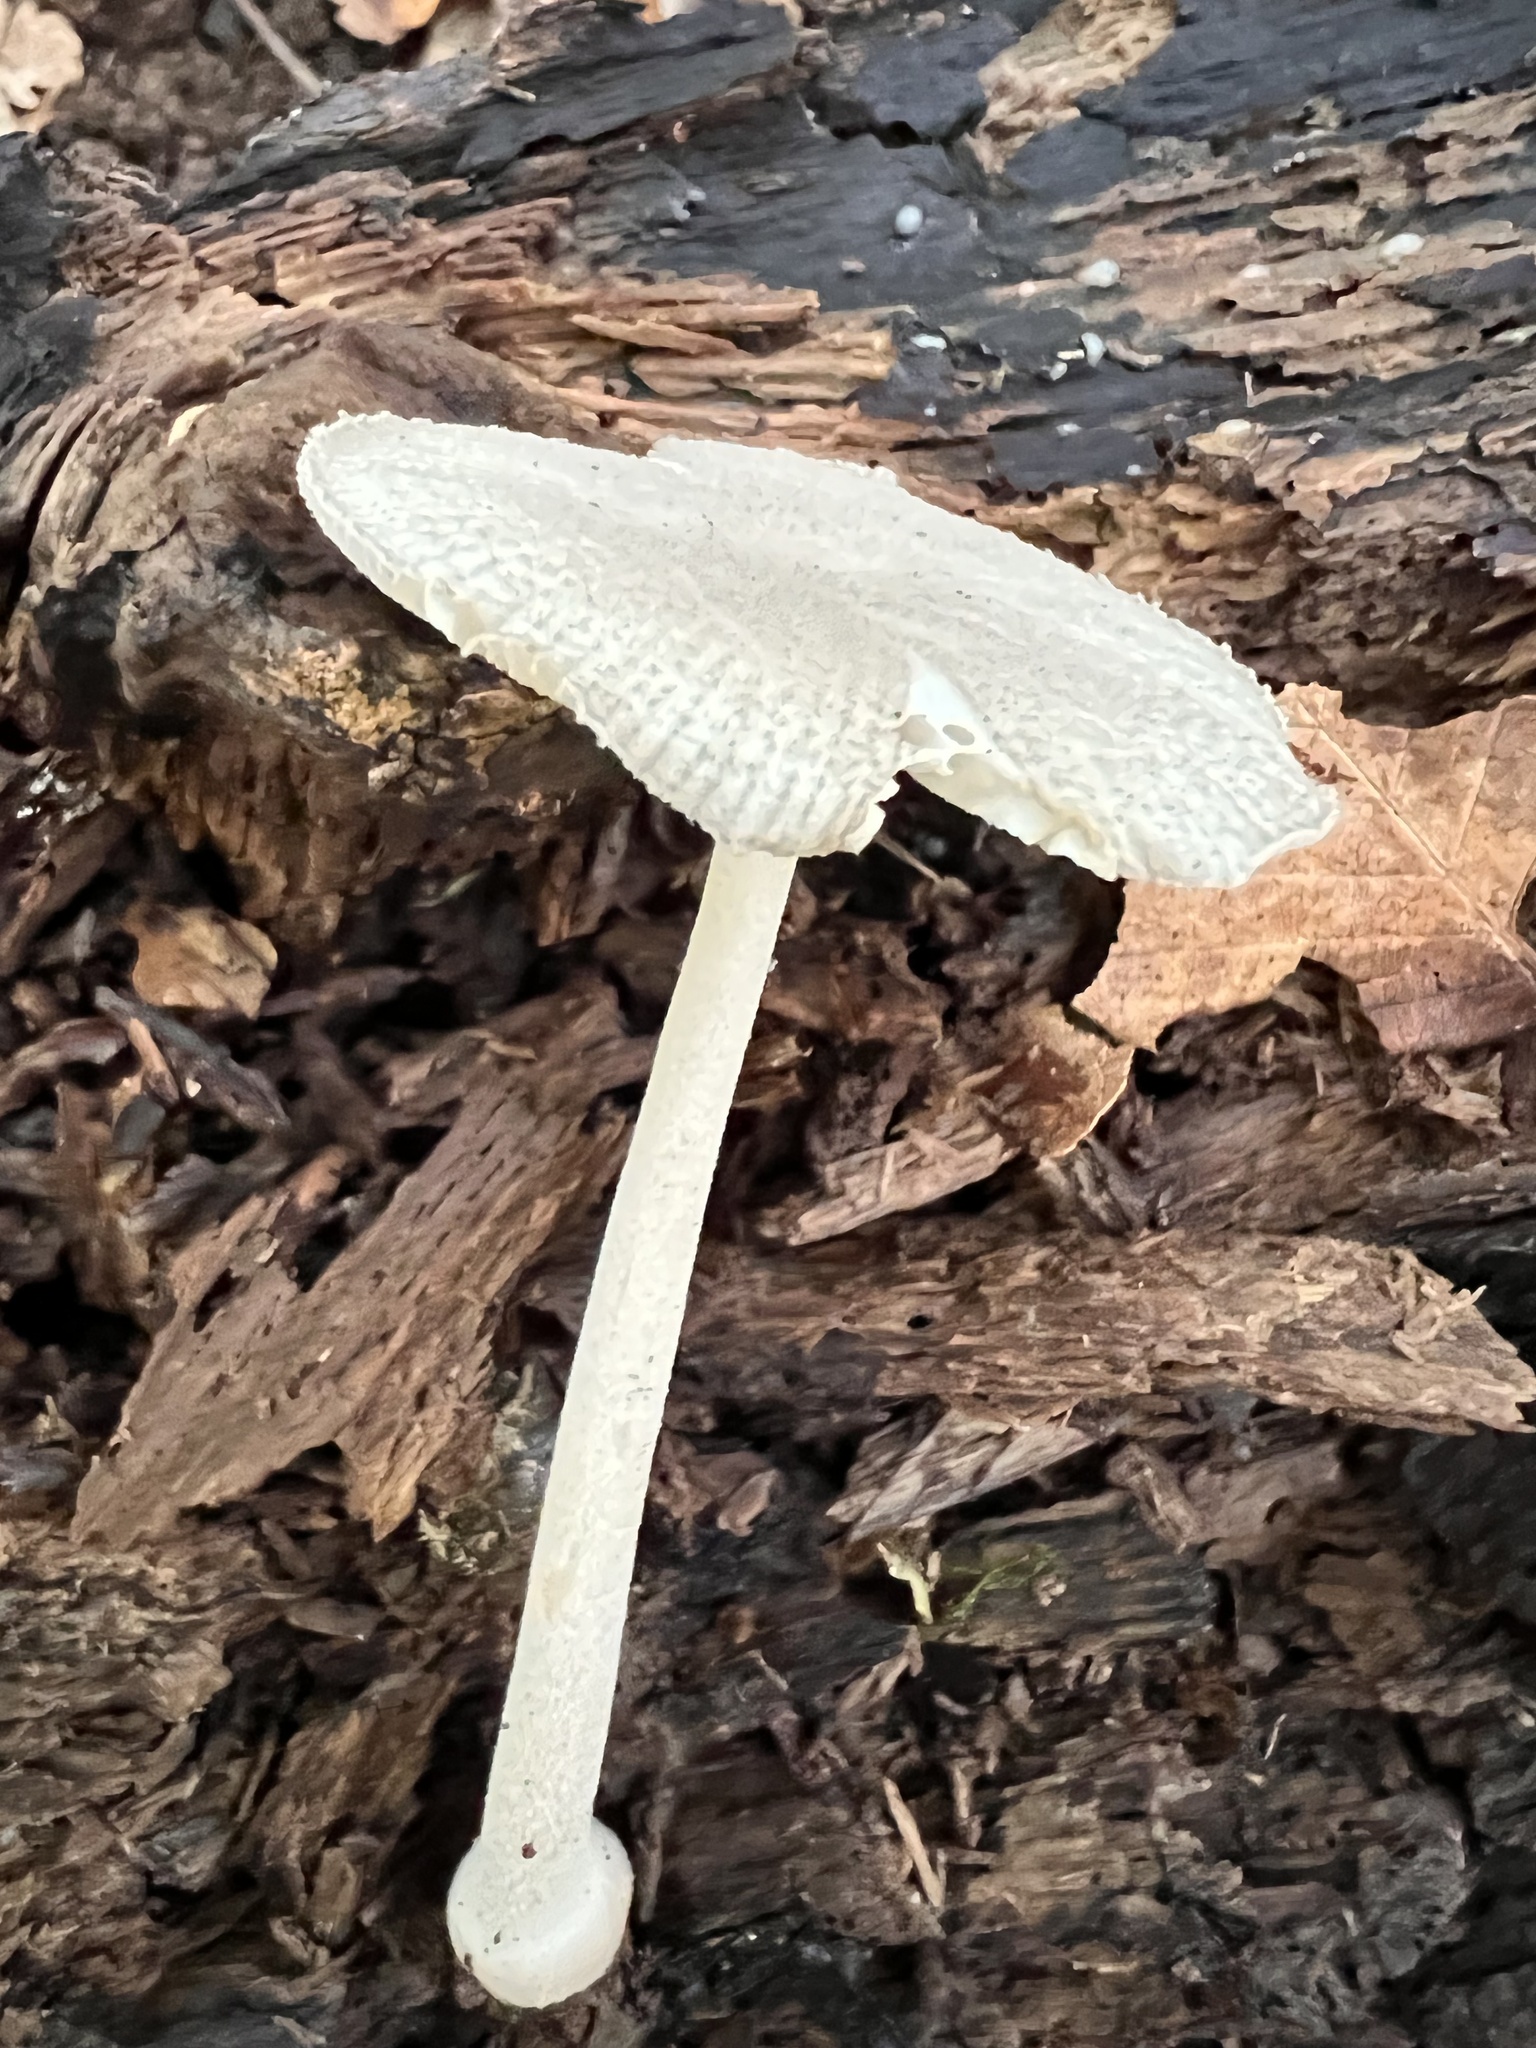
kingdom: Fungi
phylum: Basidiomycota
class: Agaricomycetes
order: Agaricales
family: Amanitaceae
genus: Amanita
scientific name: Amanita farinosa
